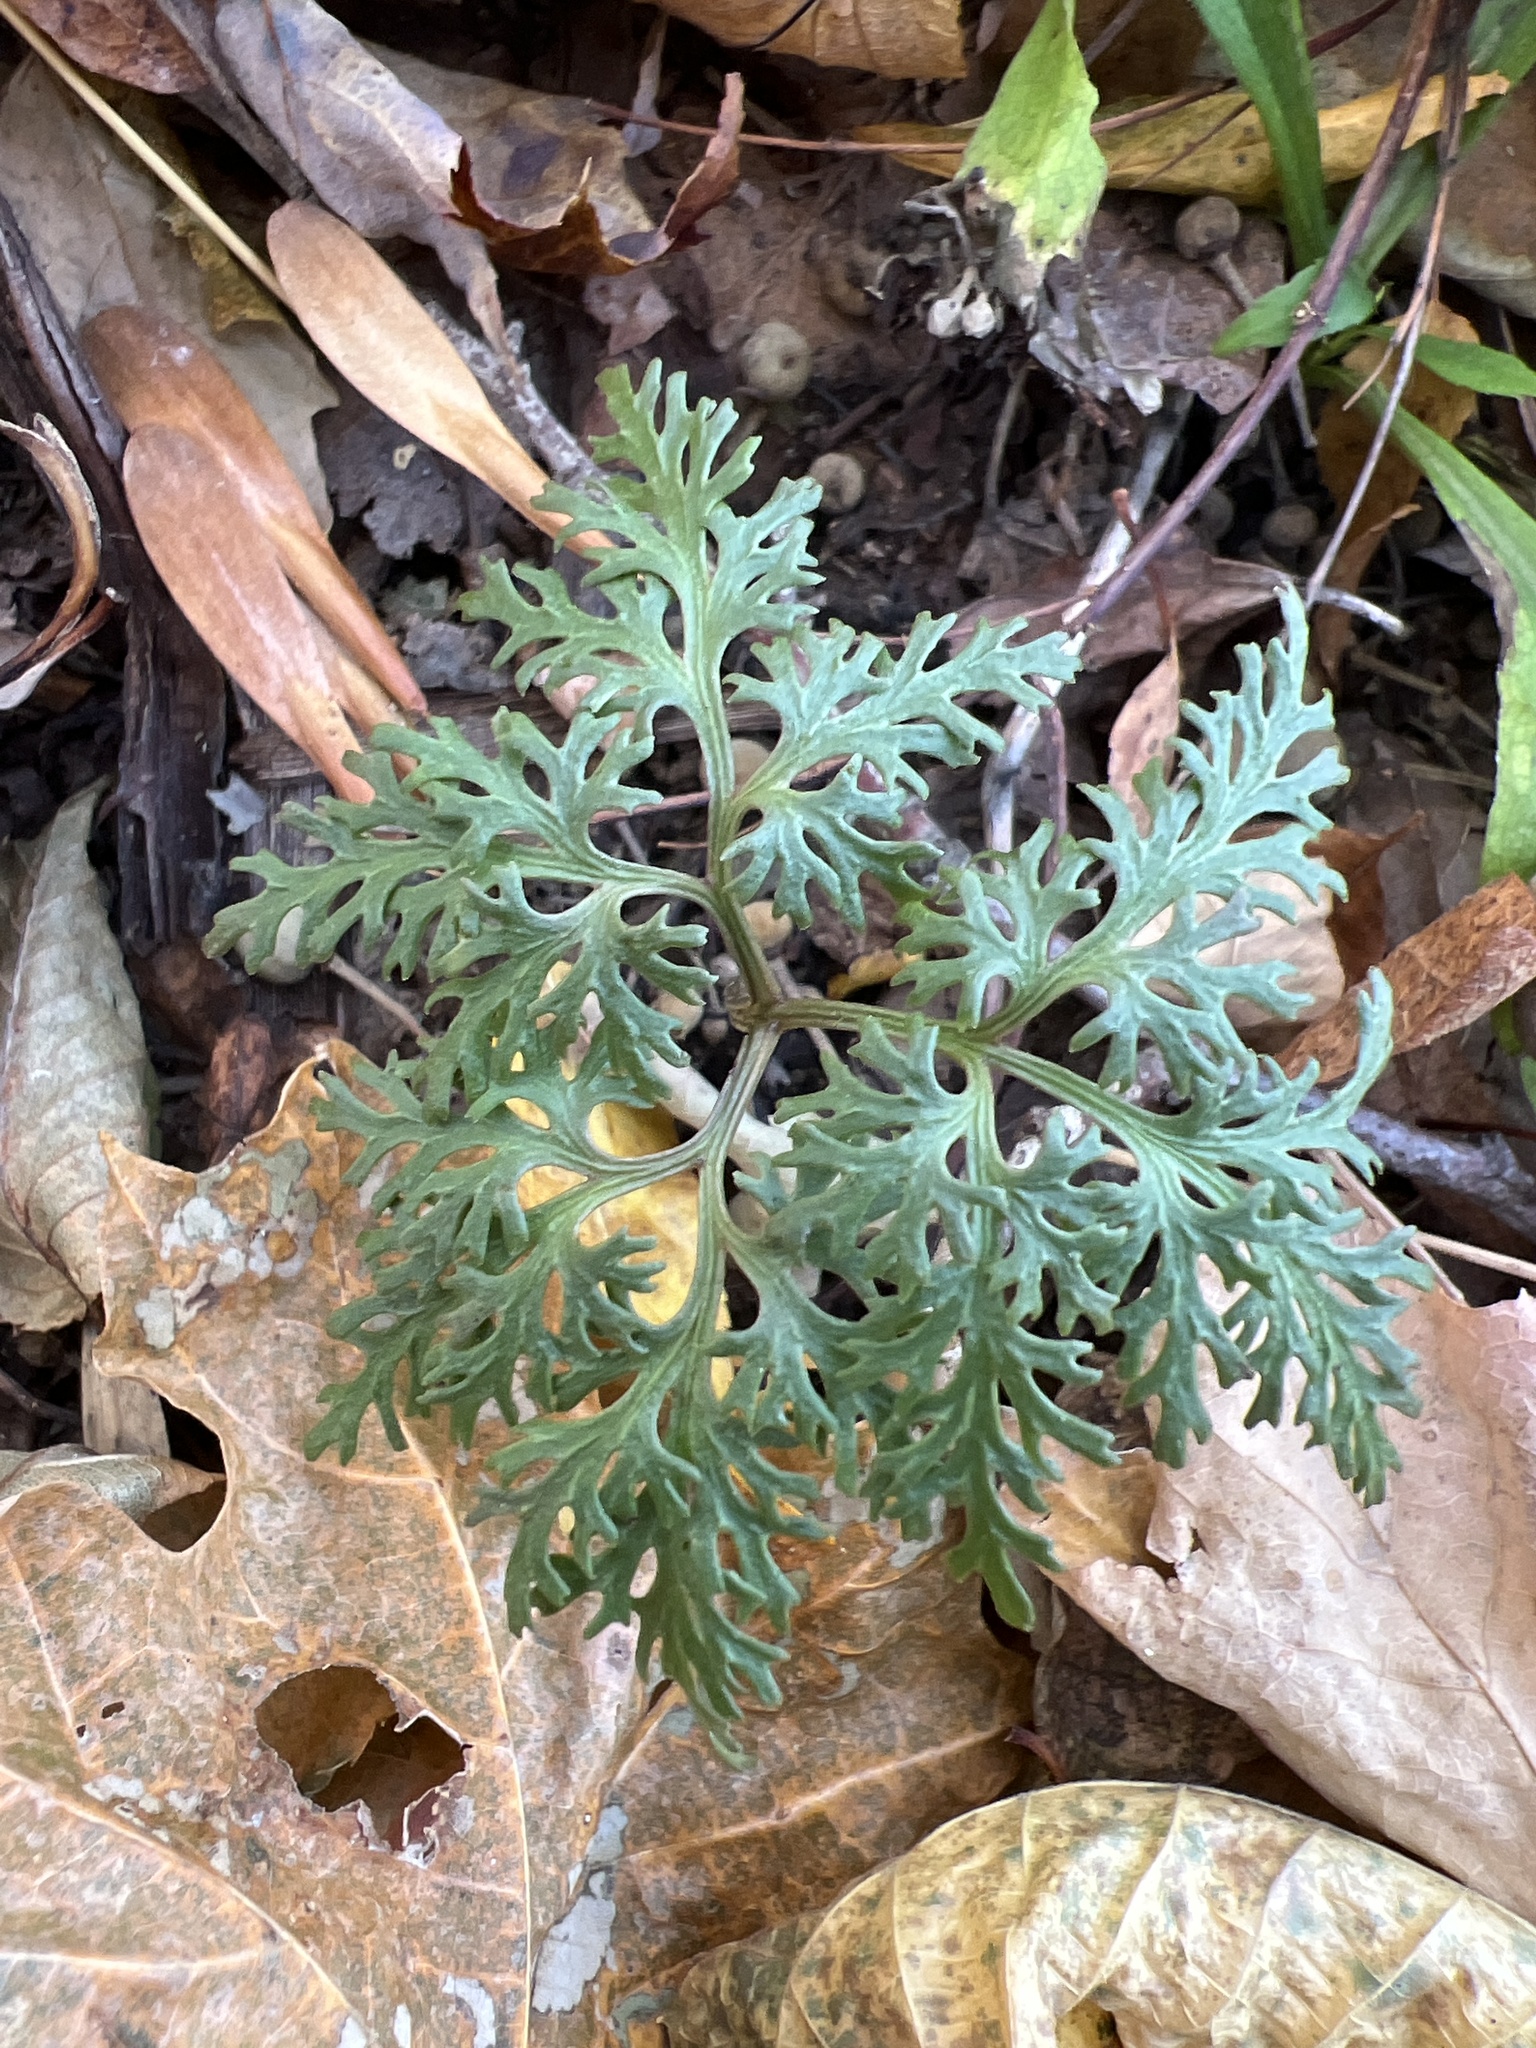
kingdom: Plantae
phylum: Tracheophyta
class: Polypodiopsida
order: Ophioglossales
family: Ophioglossaceae
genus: Sceptridium
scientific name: Sceptridium dissectum
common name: Cut-leaved grapefern
